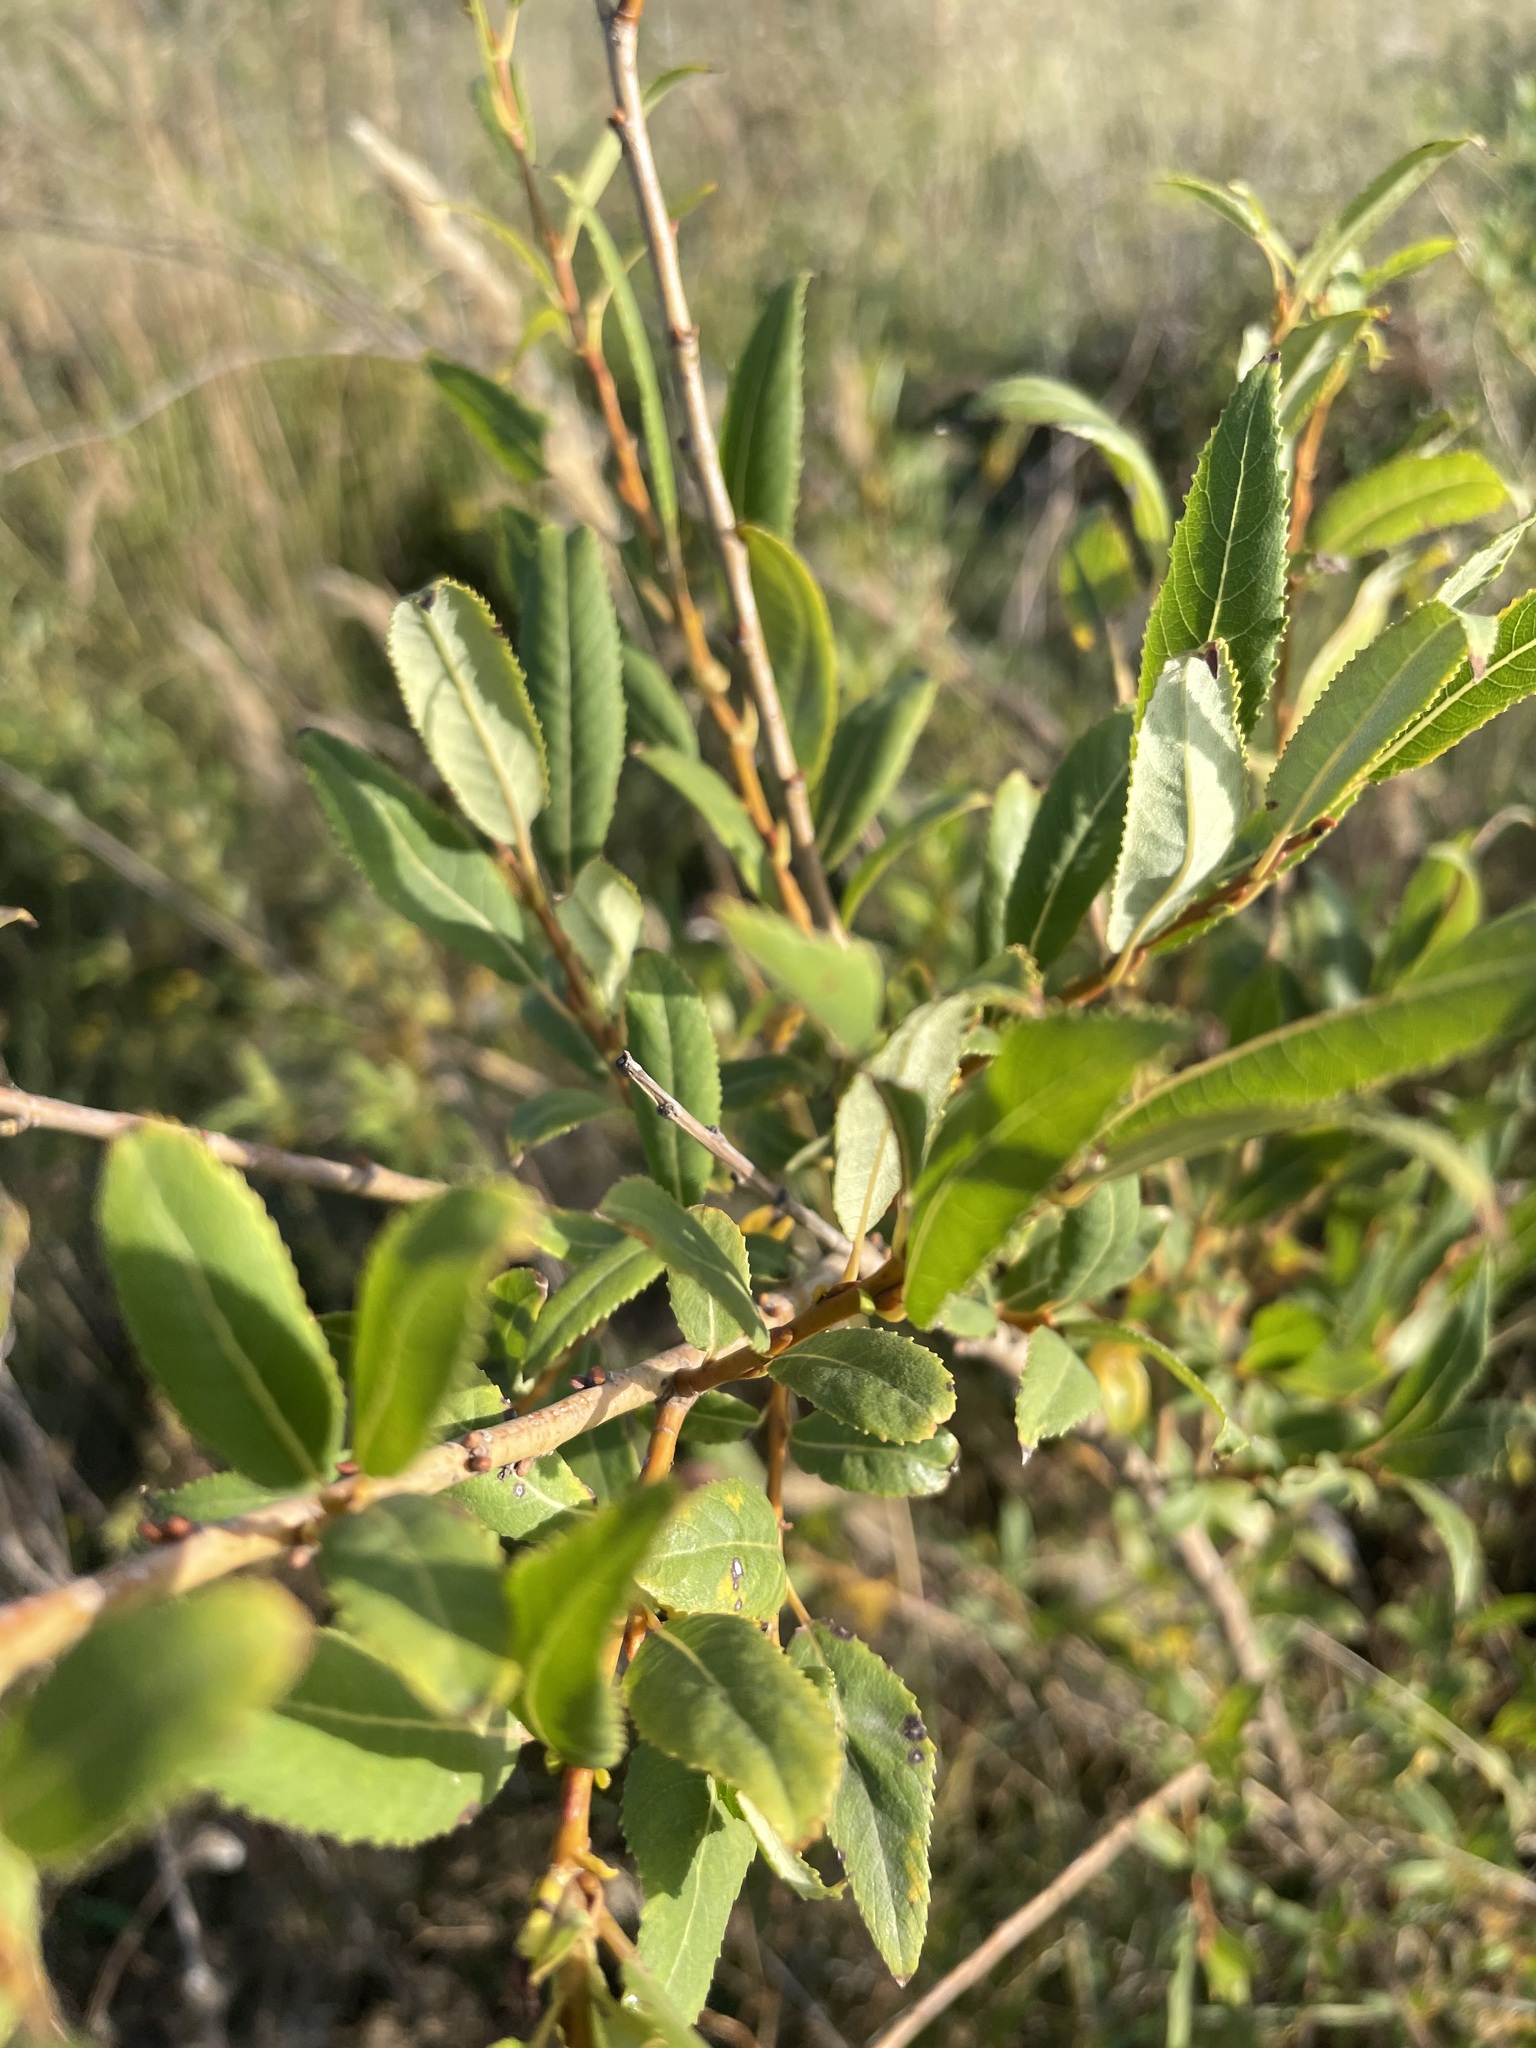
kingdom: Plantae
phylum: Tracheophyta
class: Magnoliopsida
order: Malpighiales
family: Salicaceae
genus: Salix
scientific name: Salix triandra
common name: Almond willow
